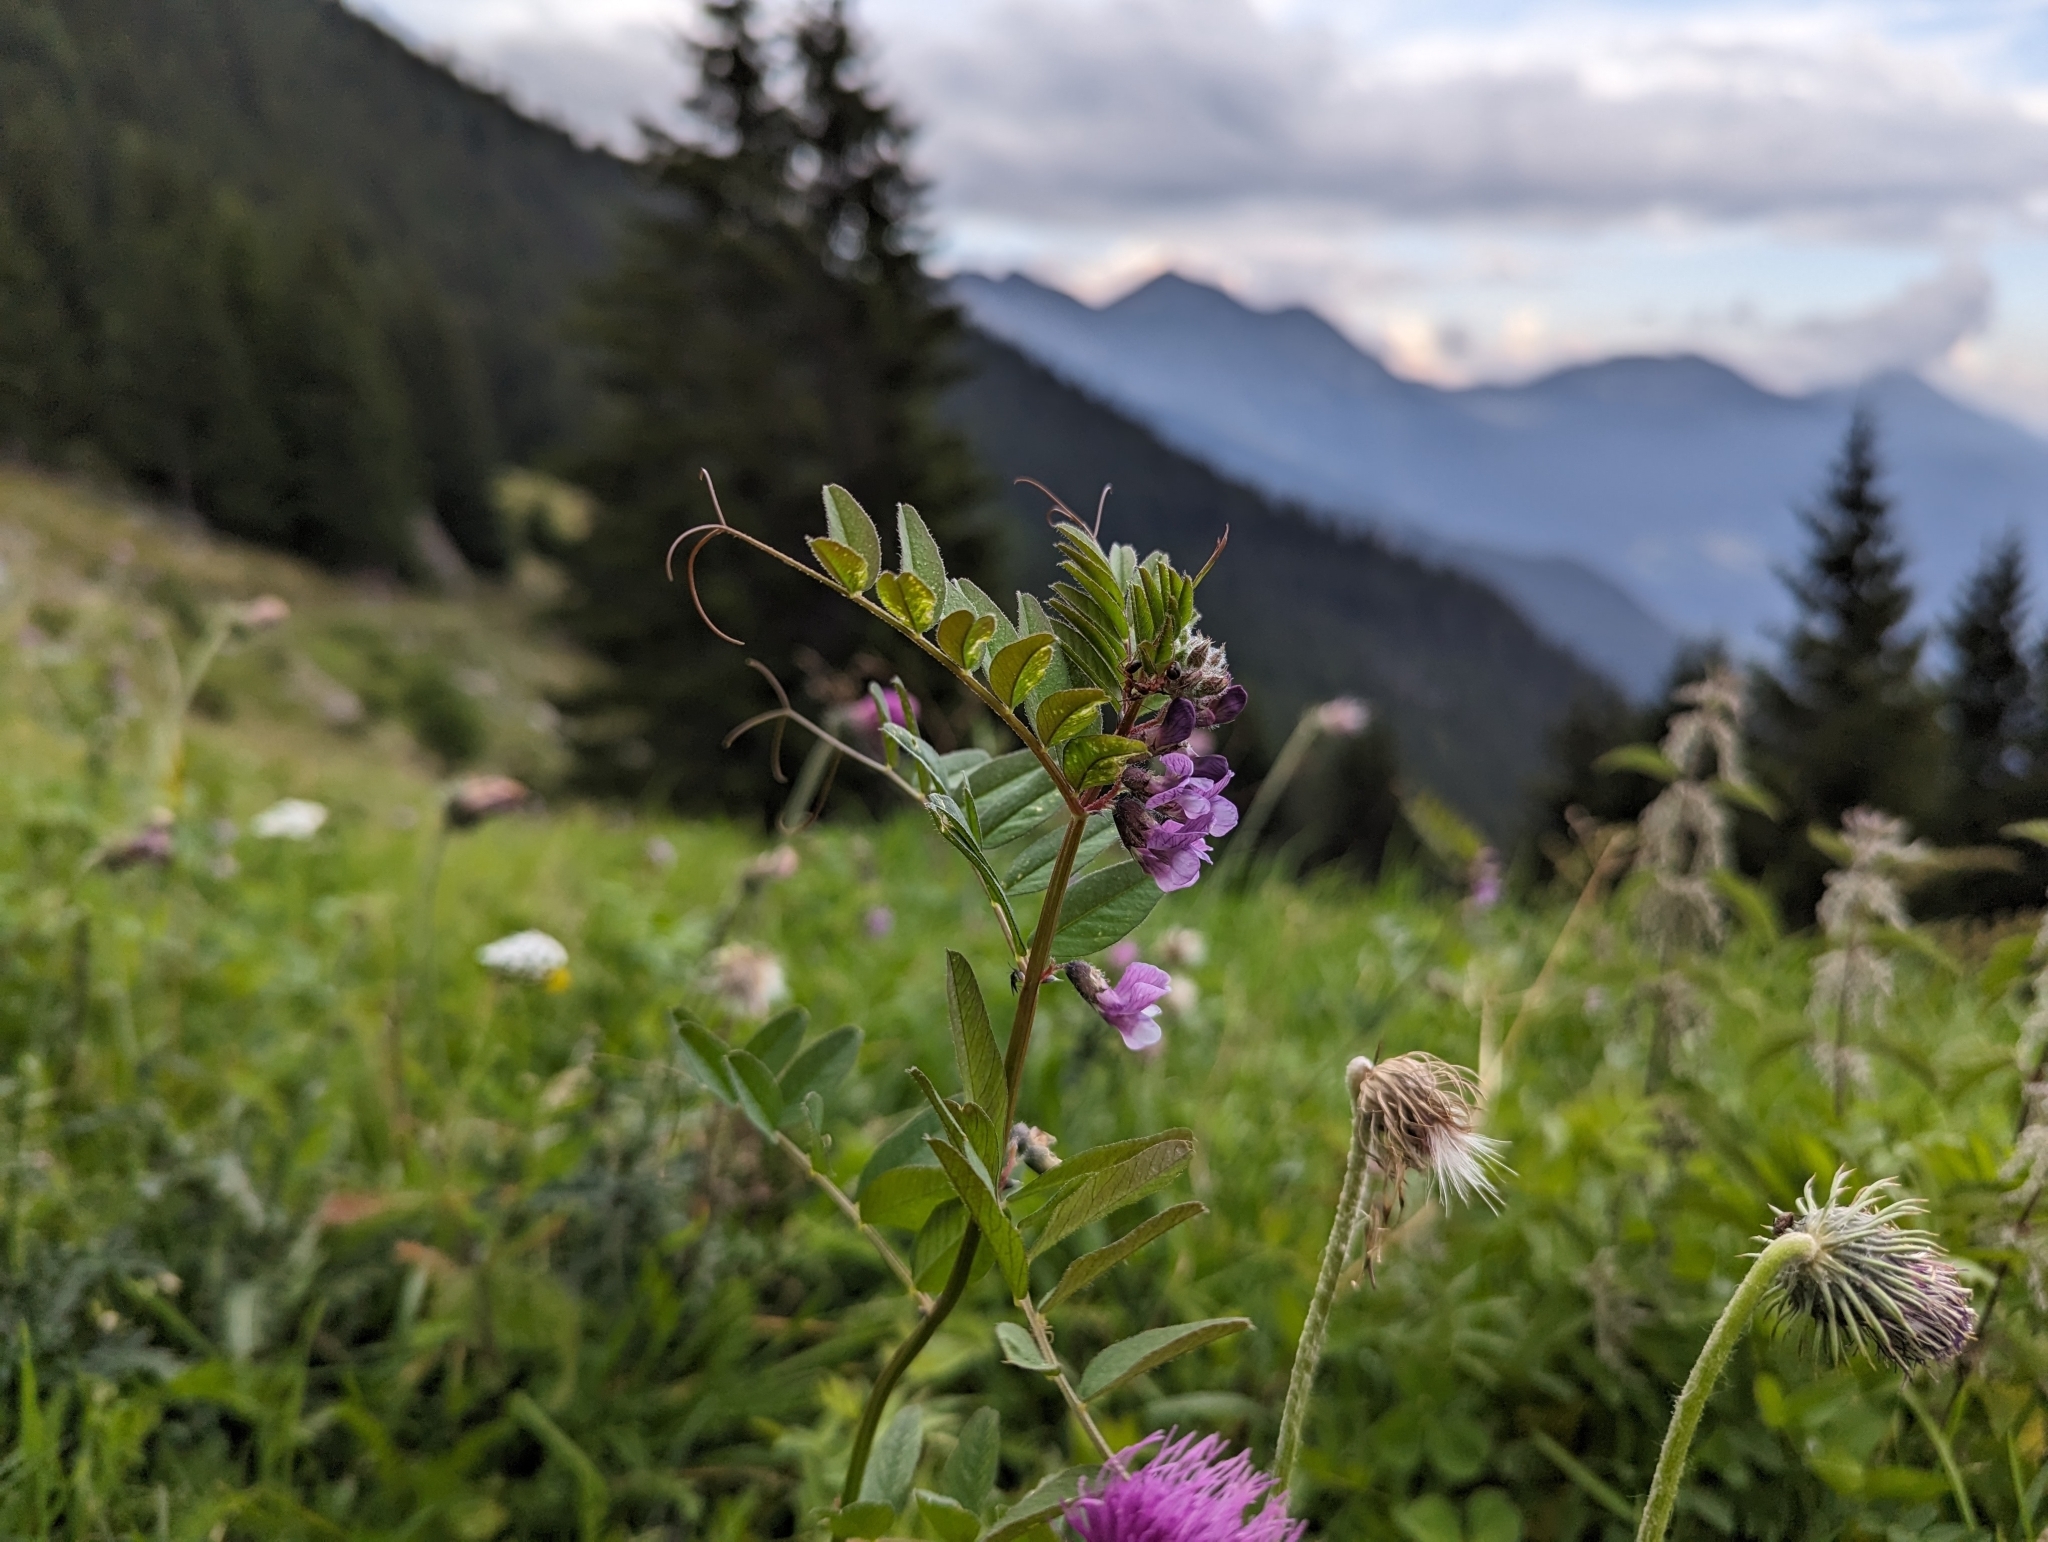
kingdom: Plantae
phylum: Tracheophyta
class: Magnoliopsida
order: Fabales
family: Fabaceae
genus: Vicia
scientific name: Vicia sepium
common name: Bush vetch
